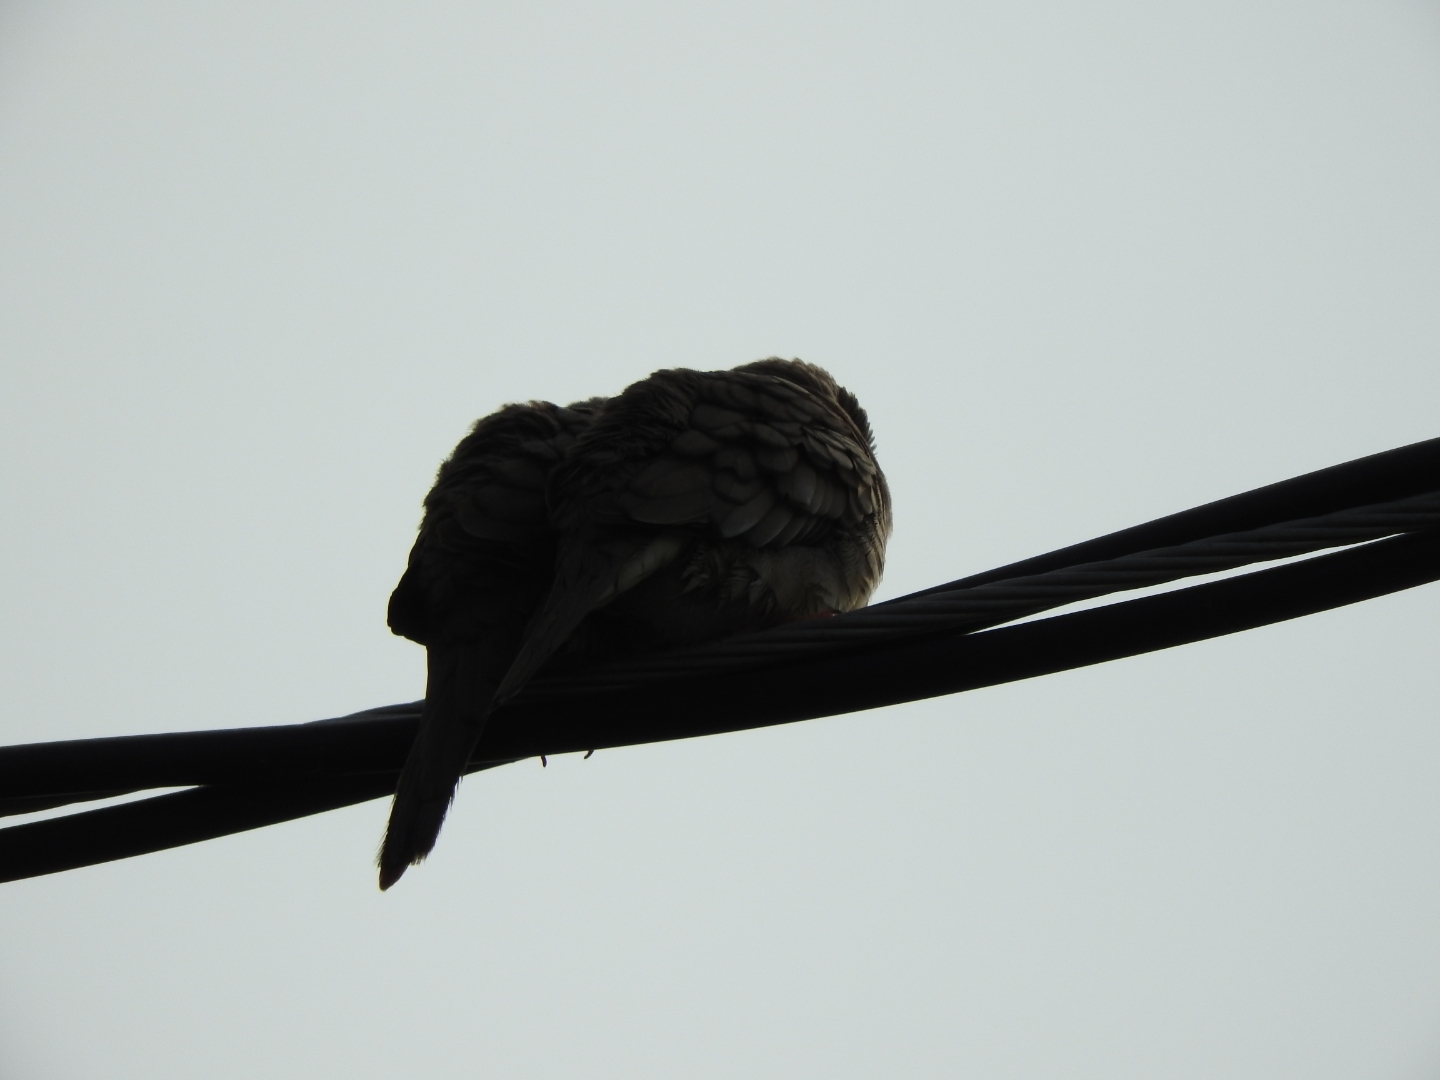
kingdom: Animalia
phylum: Chordata
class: Aves
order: Columbiformes
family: Columbidae
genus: Columbina
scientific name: Columbina inca
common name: Inca dove
